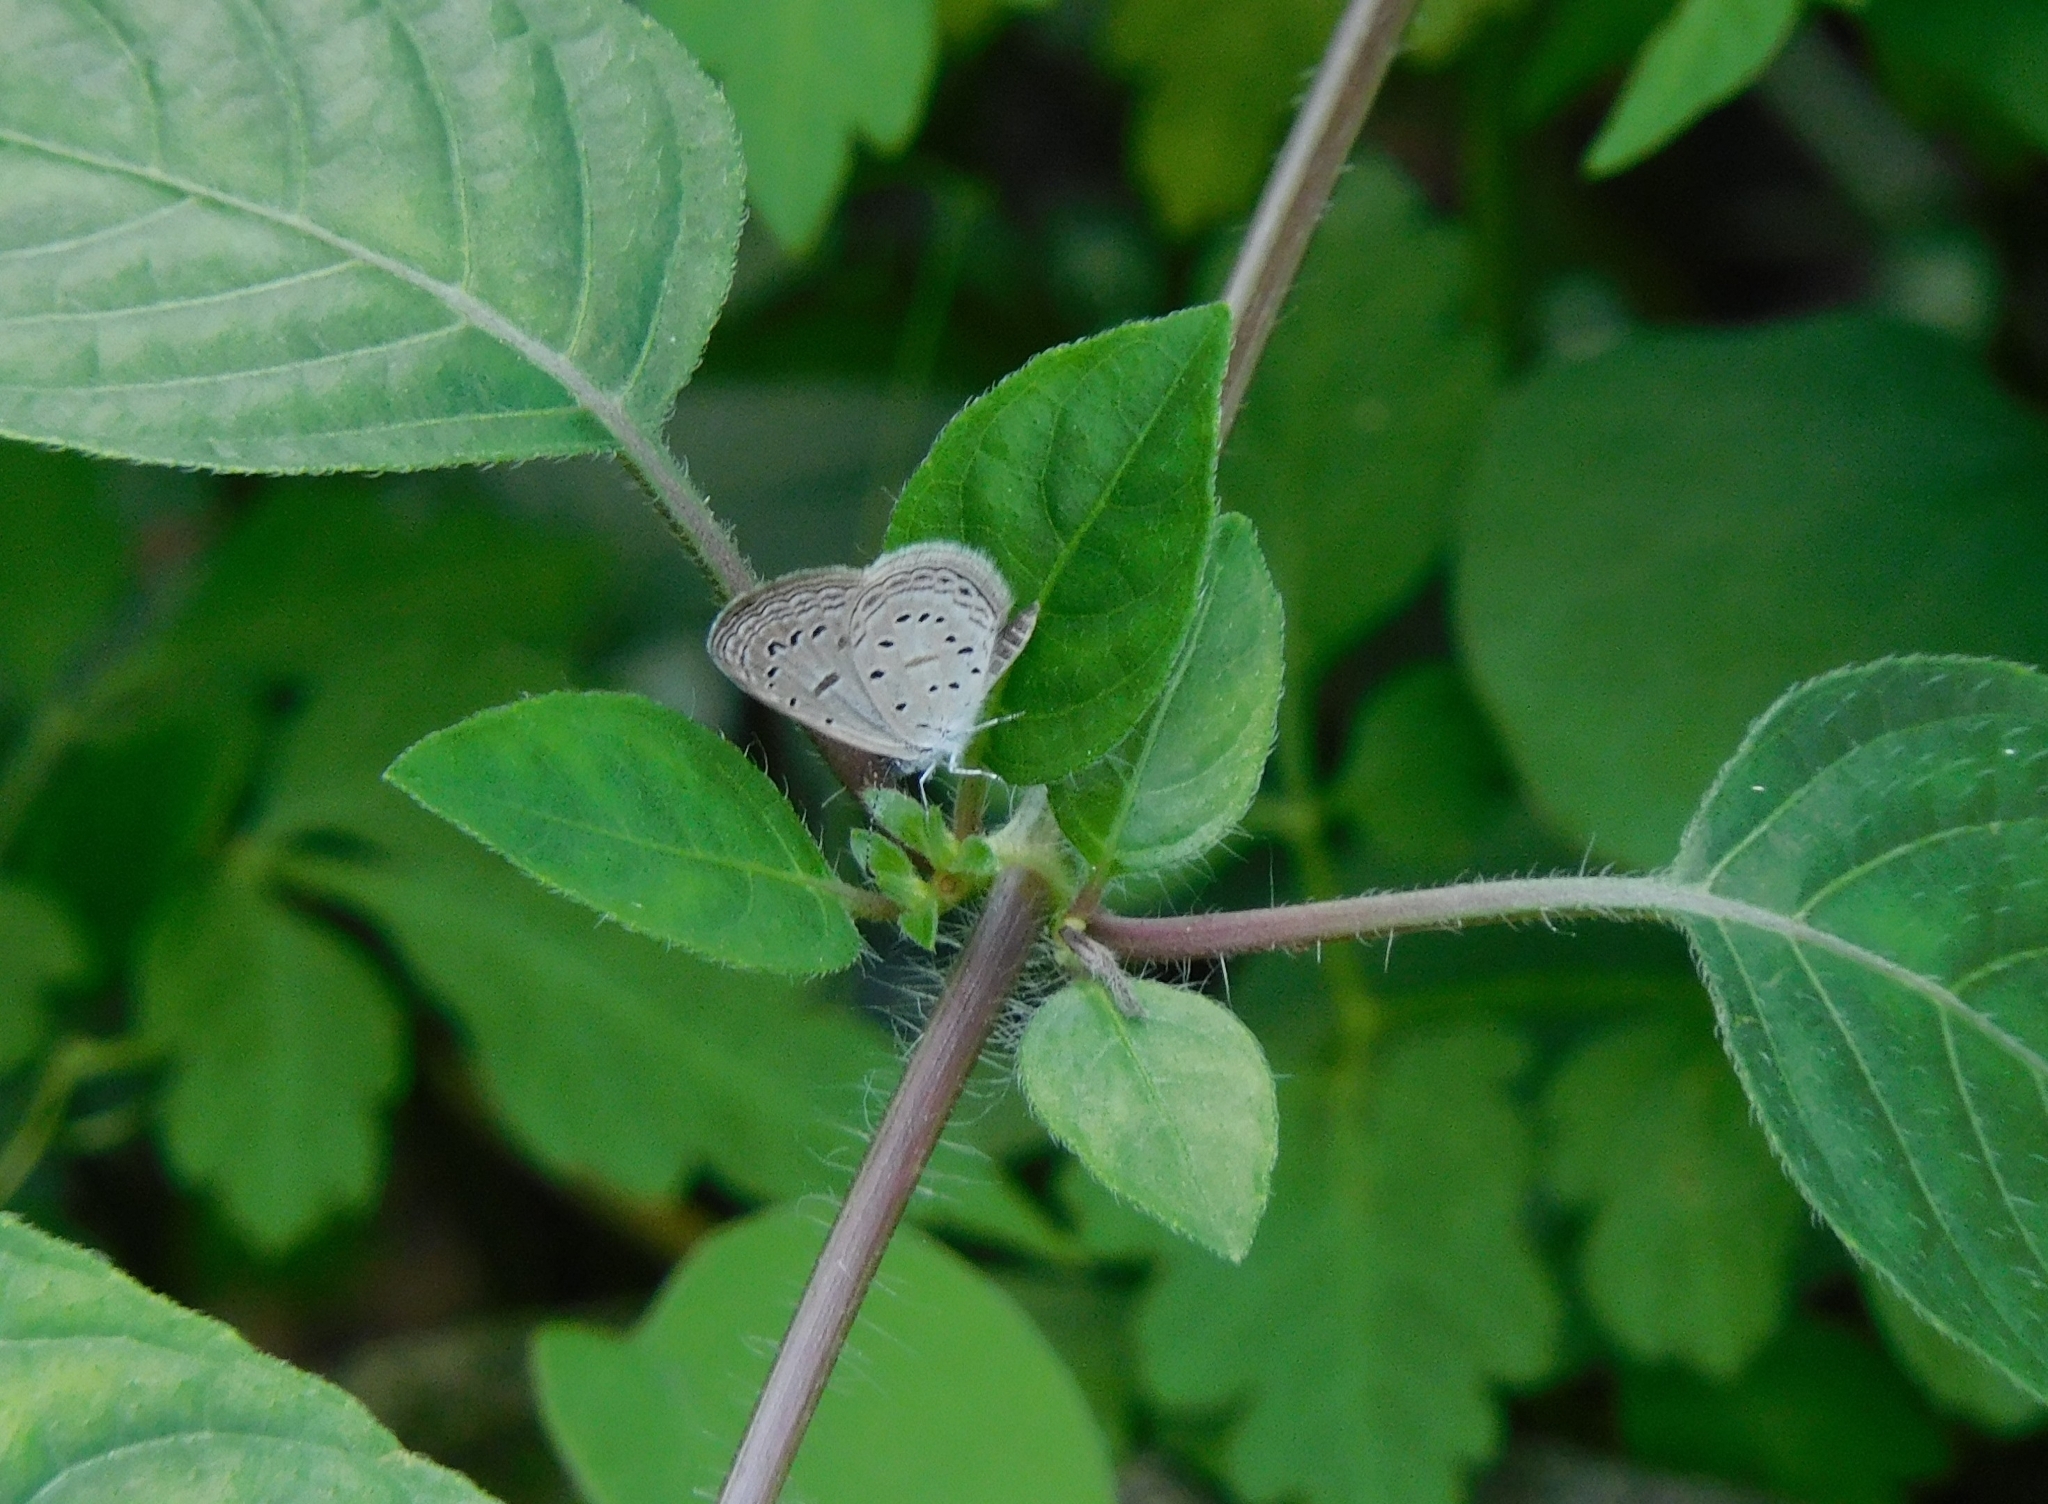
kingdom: Animalia
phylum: Arthropoda
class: Insecta
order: Lepidoptera
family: Lycaenidae
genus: Zizula
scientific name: Zizula hylax
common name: Gaika blue
